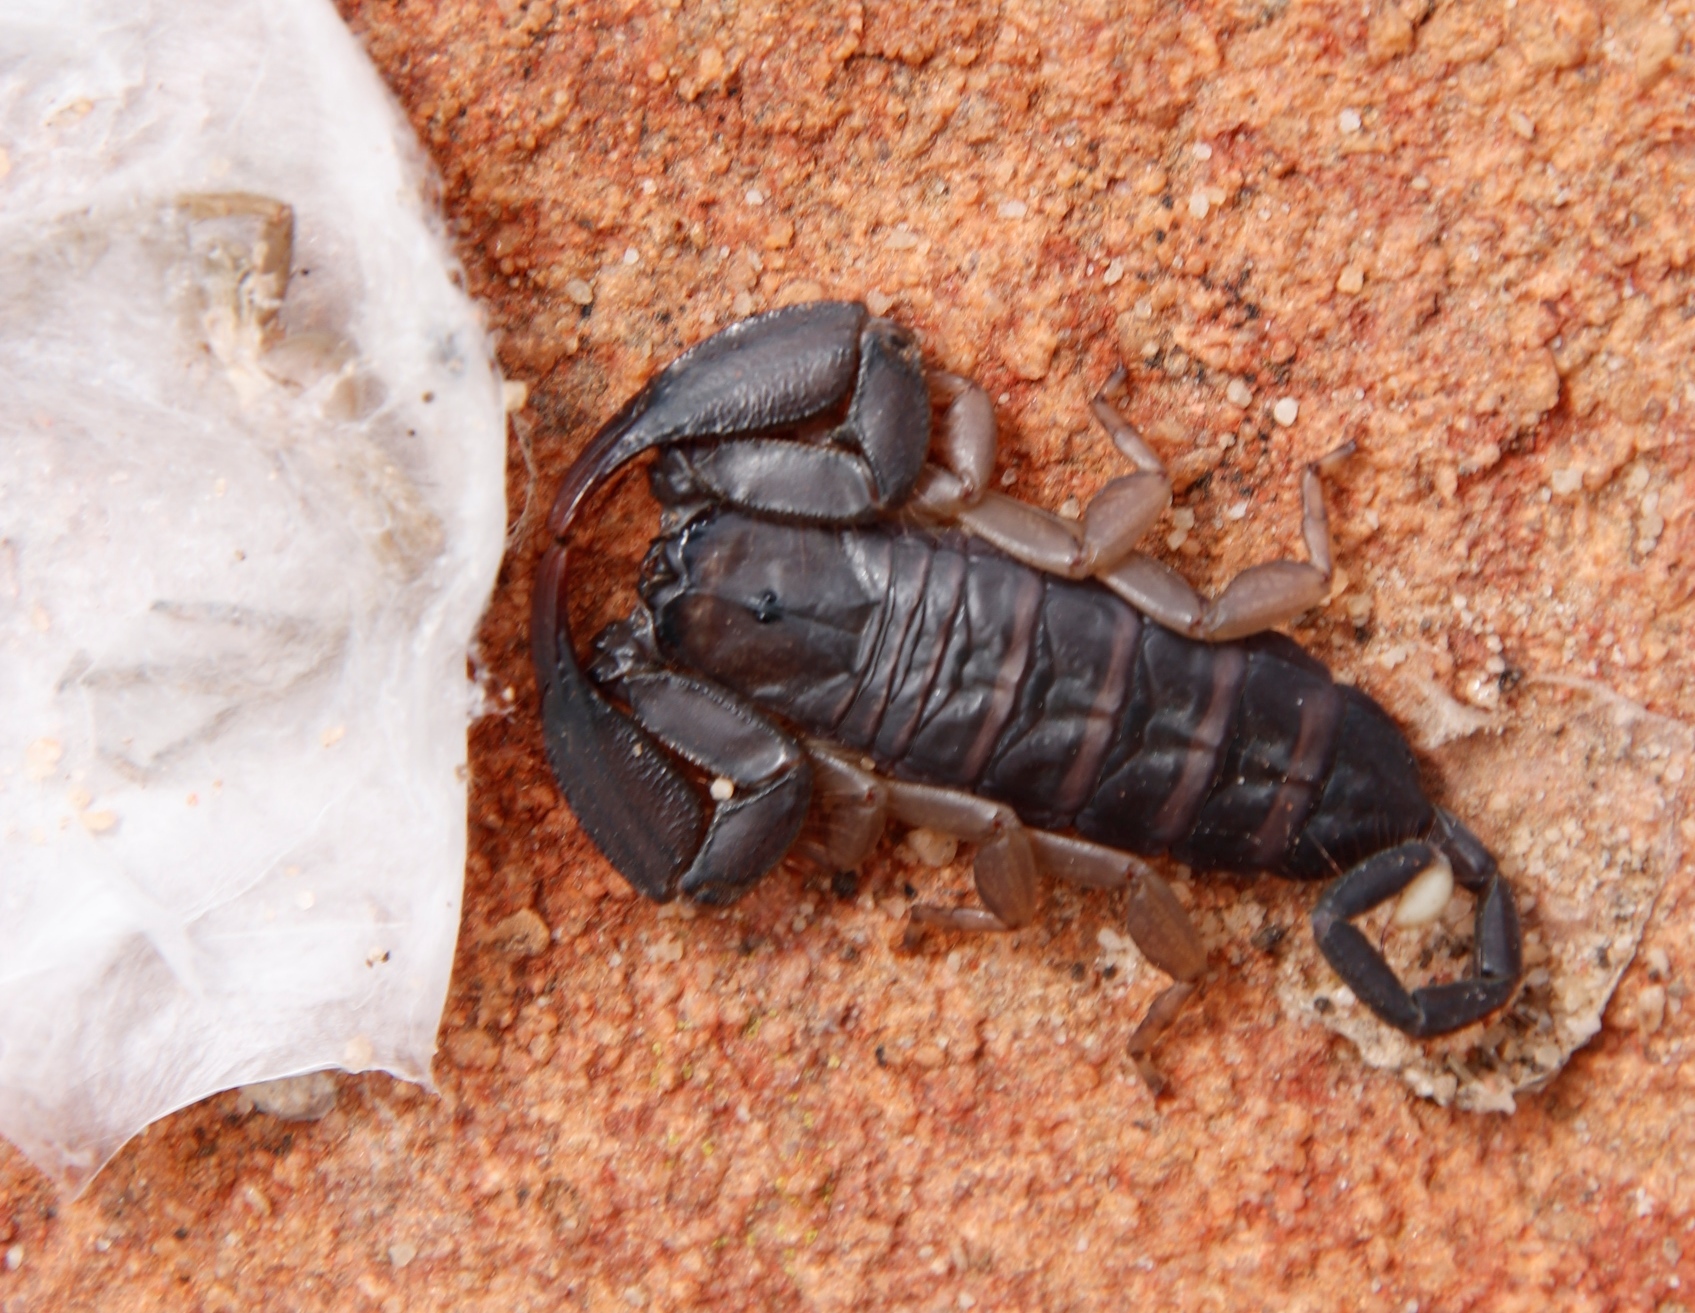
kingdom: Animalia
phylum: Arthropoda
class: Arachnida
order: Scorpiones
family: Hormuridae
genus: Hadogenes
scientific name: Hadogenes minor
